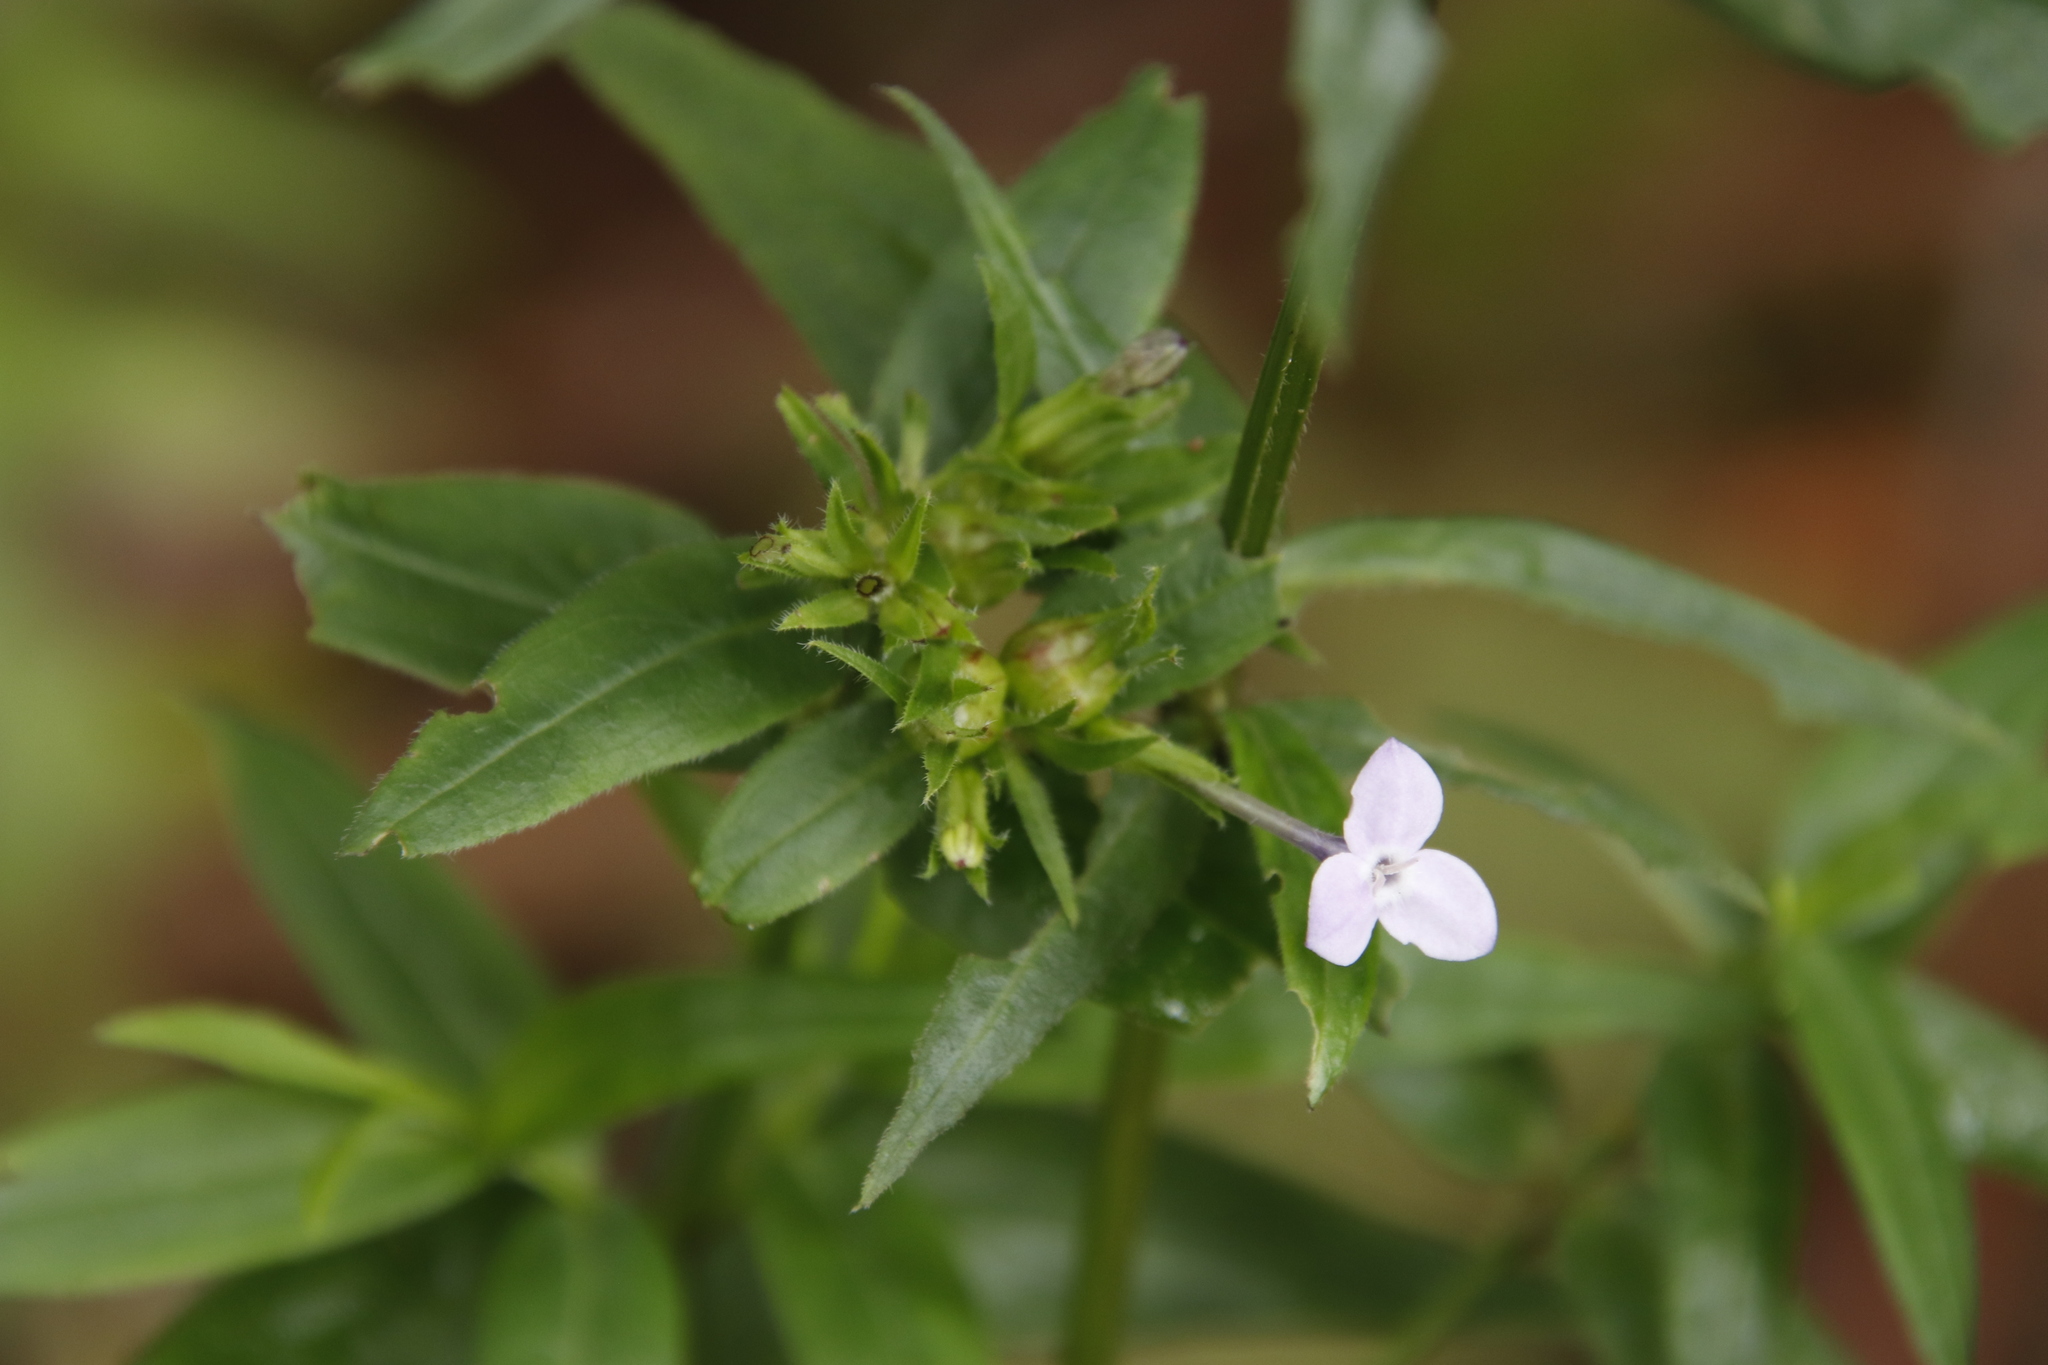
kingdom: Plantae
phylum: Tracheophyta
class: Magnoliopsida
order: Gentianales
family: Rubiaceae
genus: Conostomium
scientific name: Conostomium natalense
